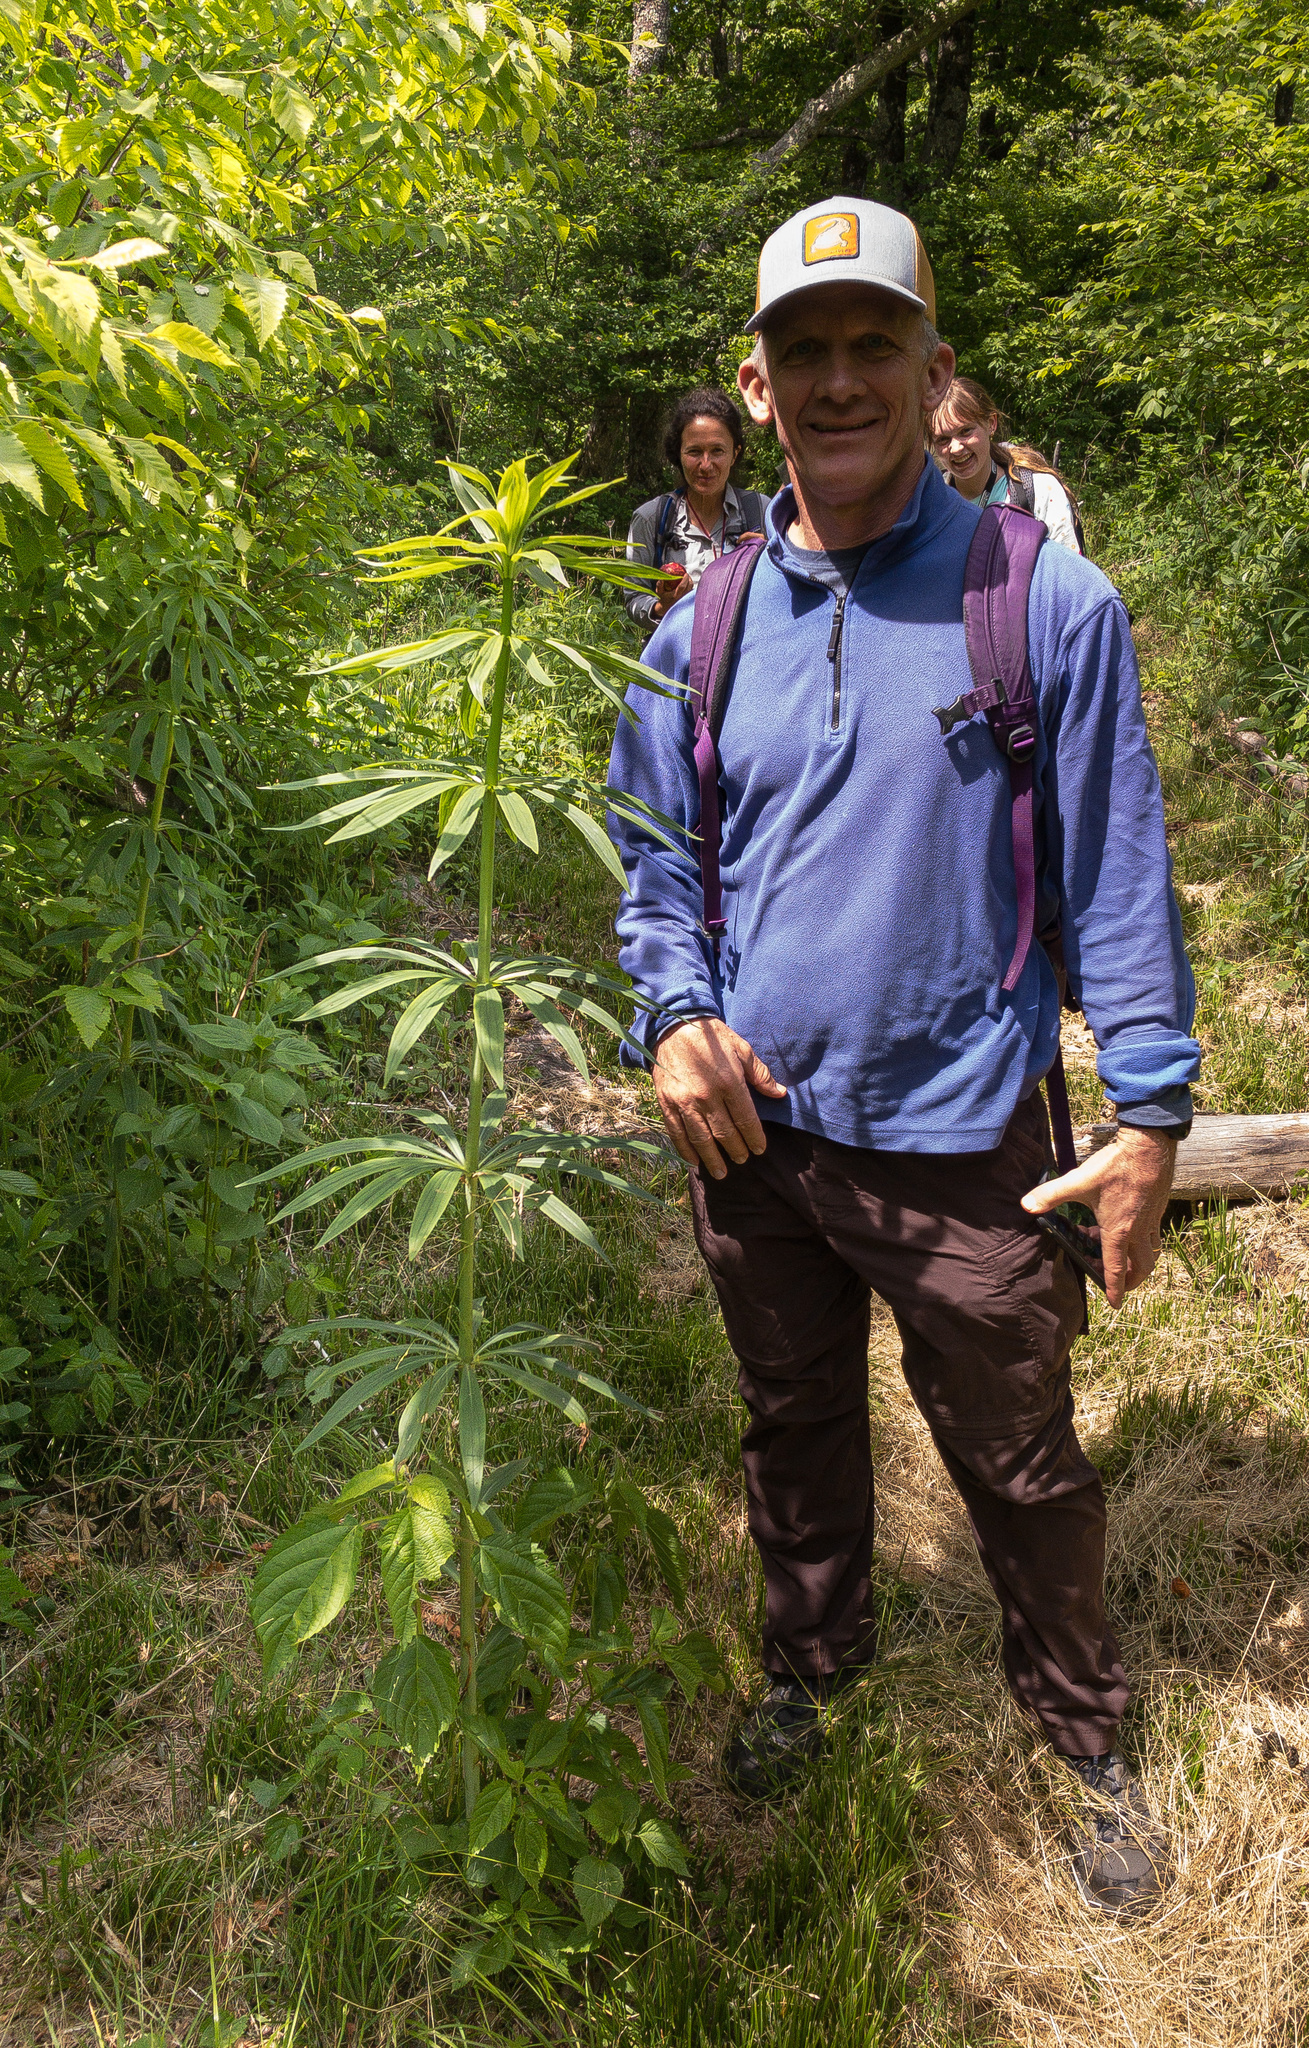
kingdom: Plantae
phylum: Tracheophyta
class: Liliopsida
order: Liliales
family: Liliaceae
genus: Lilium
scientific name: Lilium superbum
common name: American turk's-cap lily
